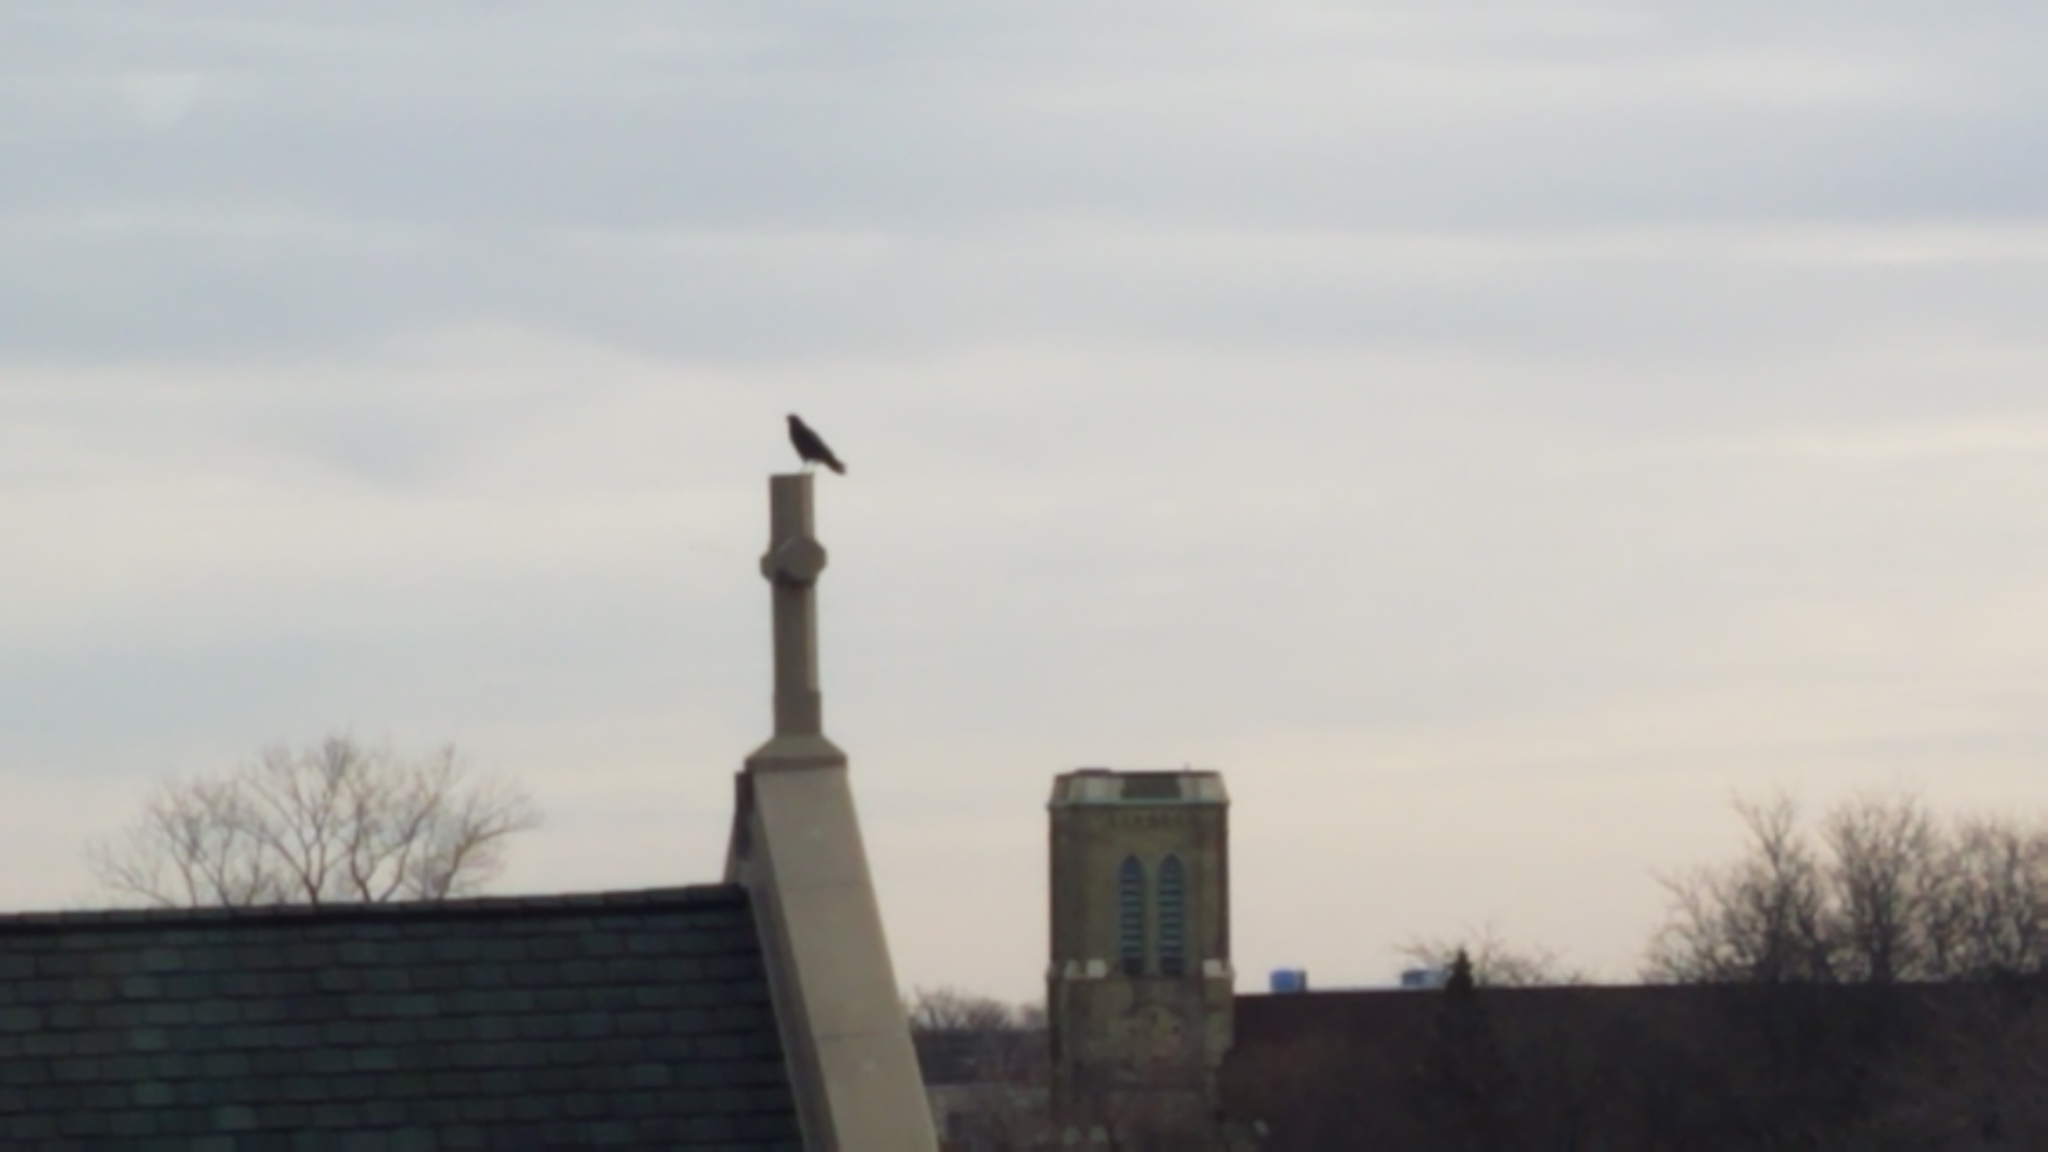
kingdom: Animalia
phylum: Chordata
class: Aves
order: Passeriformes
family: Corvidae
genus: Corvus
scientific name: Corvus brachyrhynchos
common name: American crow
